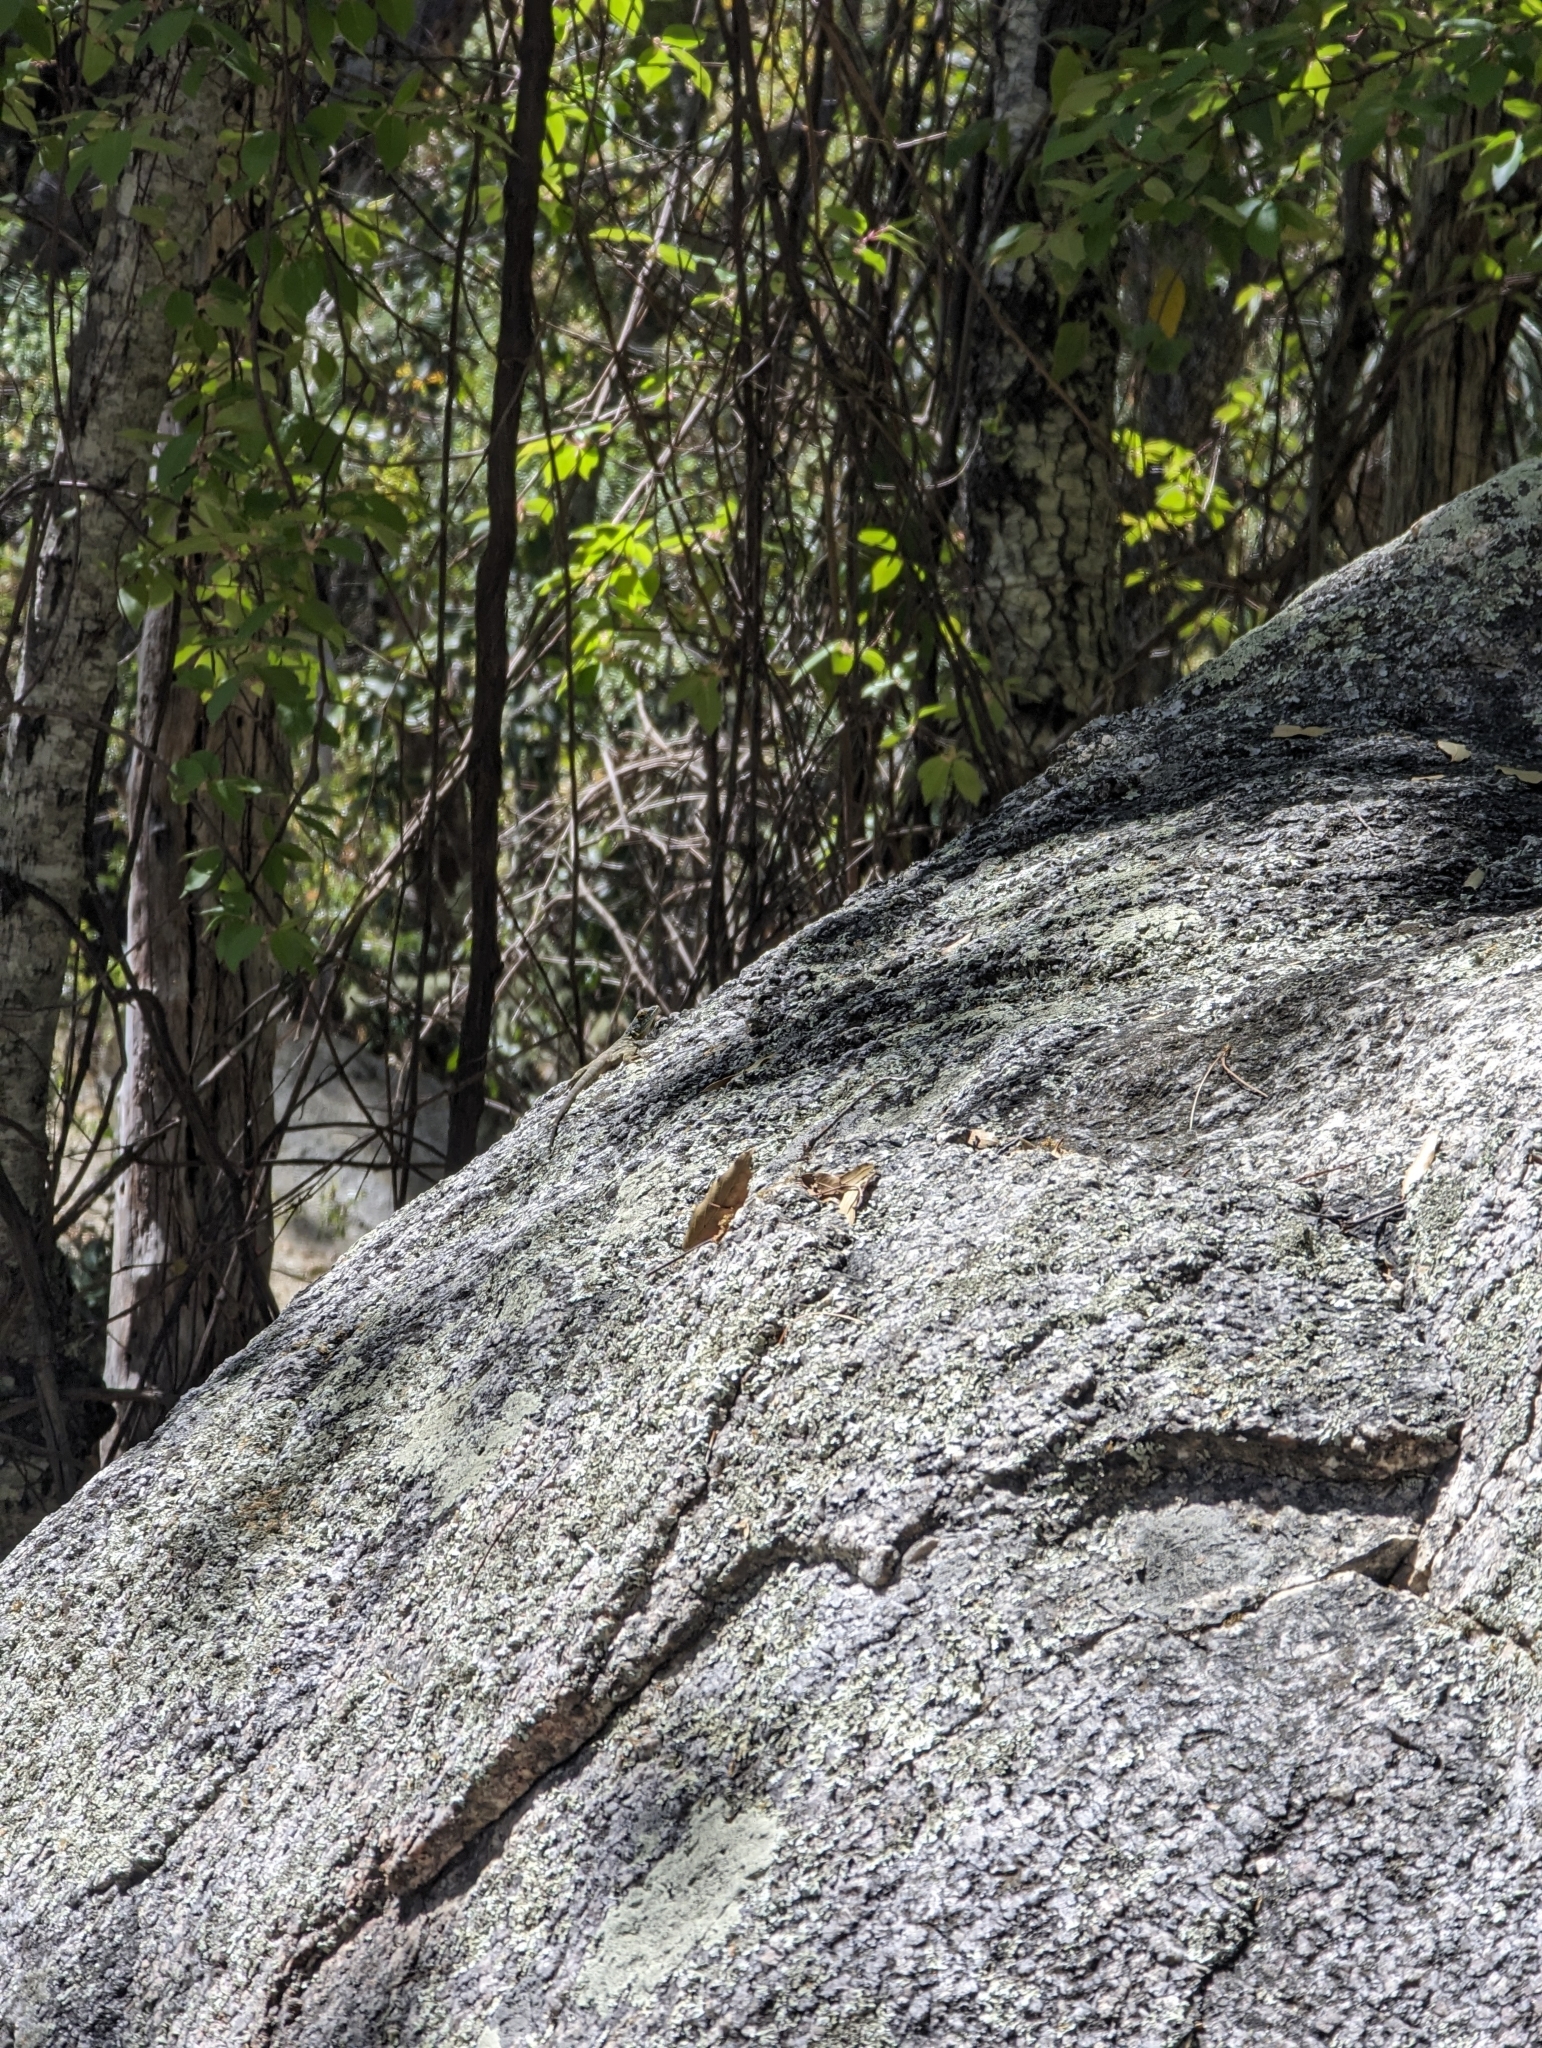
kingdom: Animalia
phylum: Chordata
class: Squamata
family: Phrynosomatidae
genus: Petrosaurus
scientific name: Petrosaurus thalassinus
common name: Baja california rock lizard
